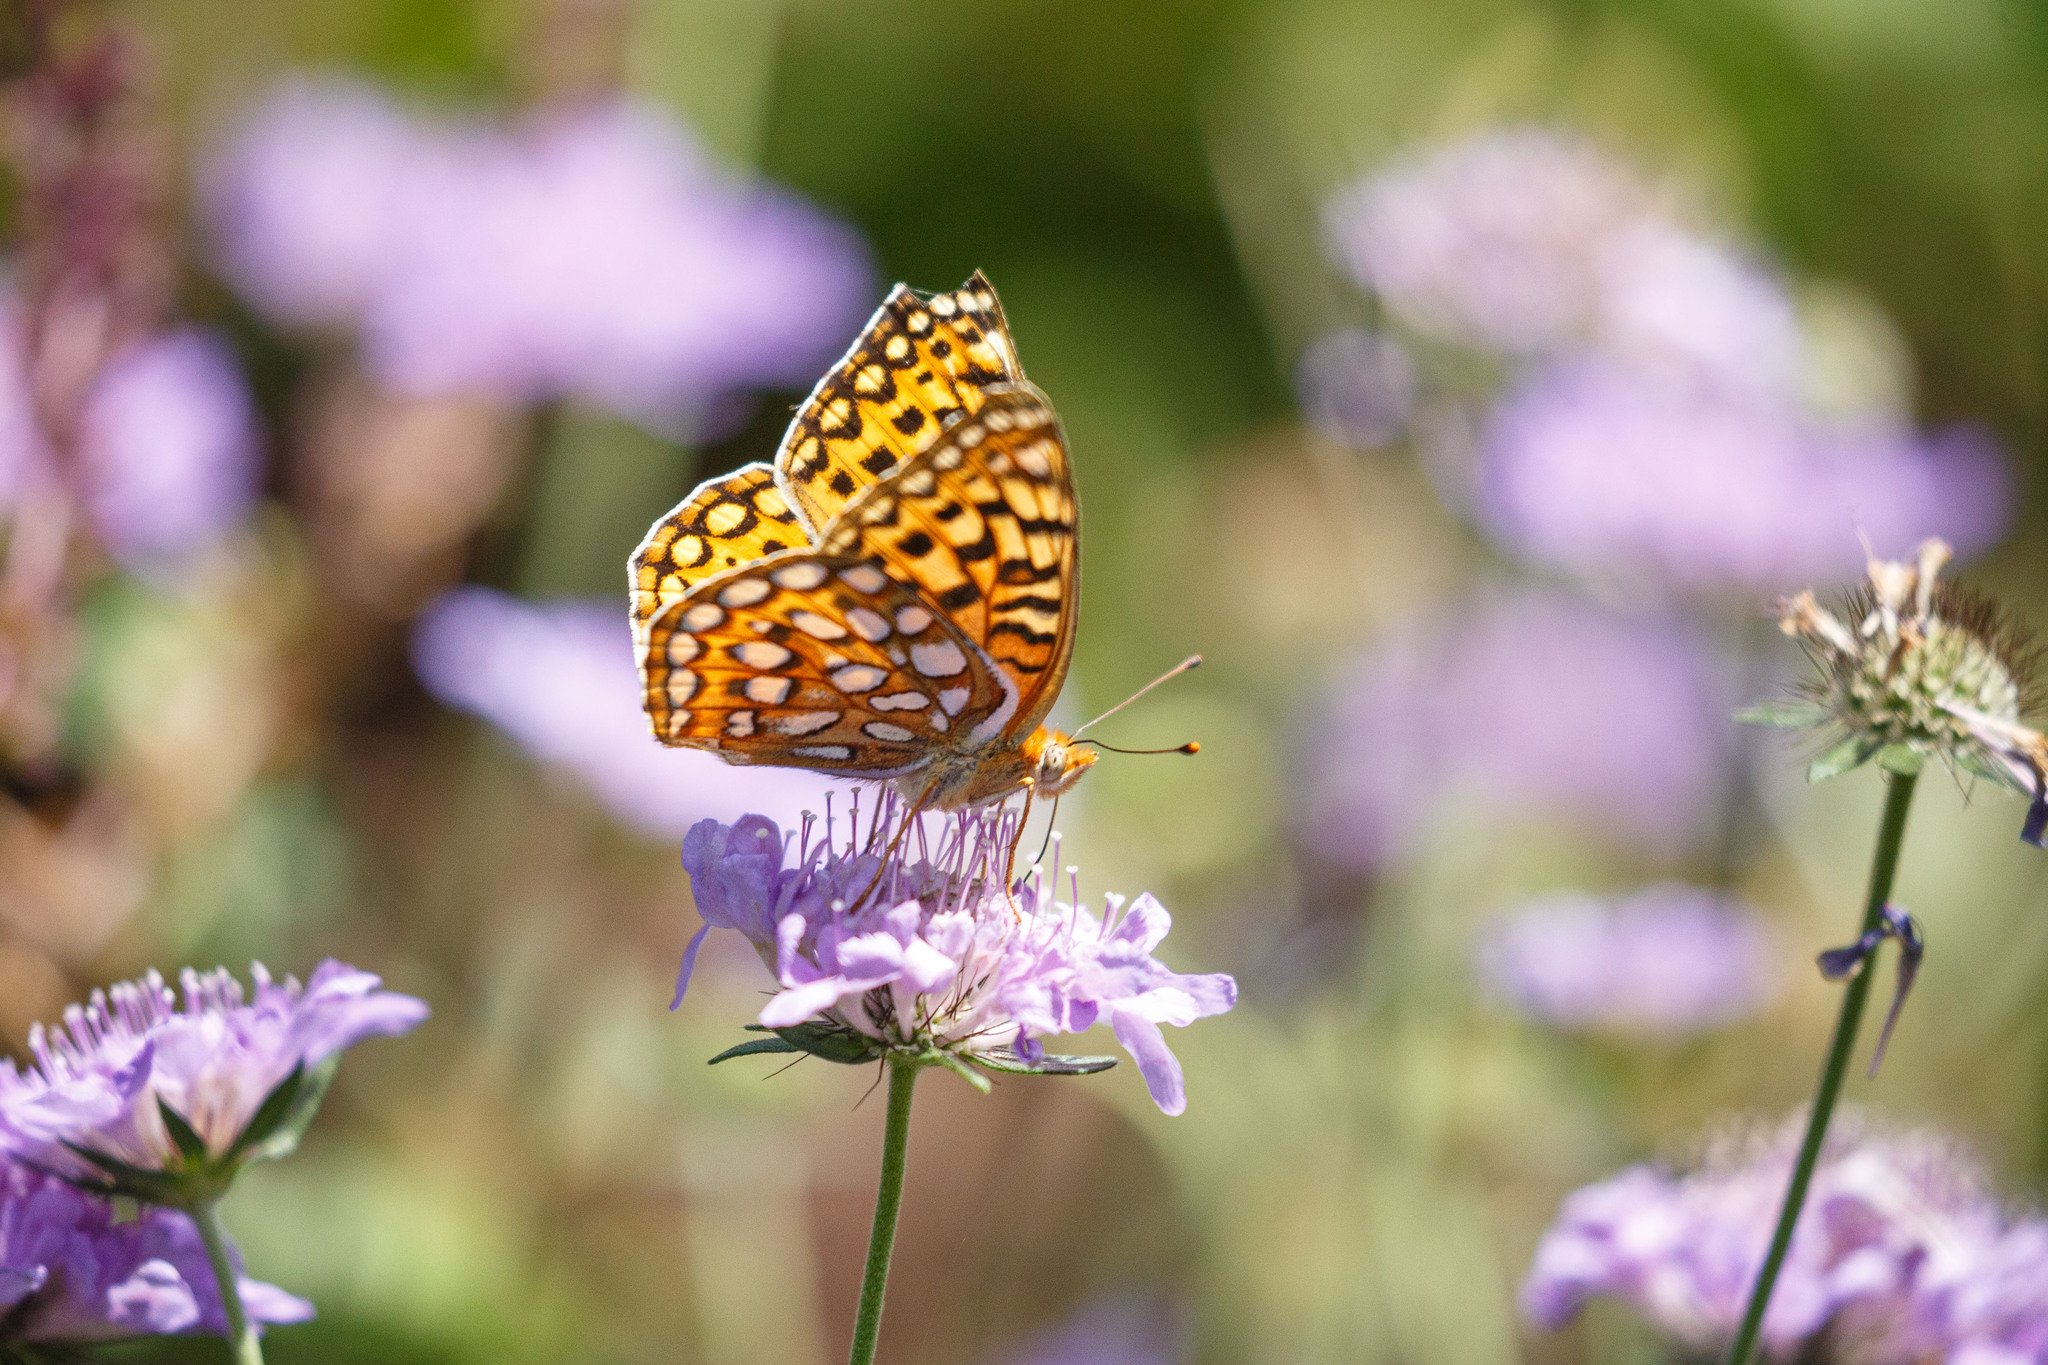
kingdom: Animalia
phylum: Arthropoda
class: Insecta
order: Lepidoptera
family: Nymphalidae
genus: Argynnis
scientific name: Argynnis coronis
